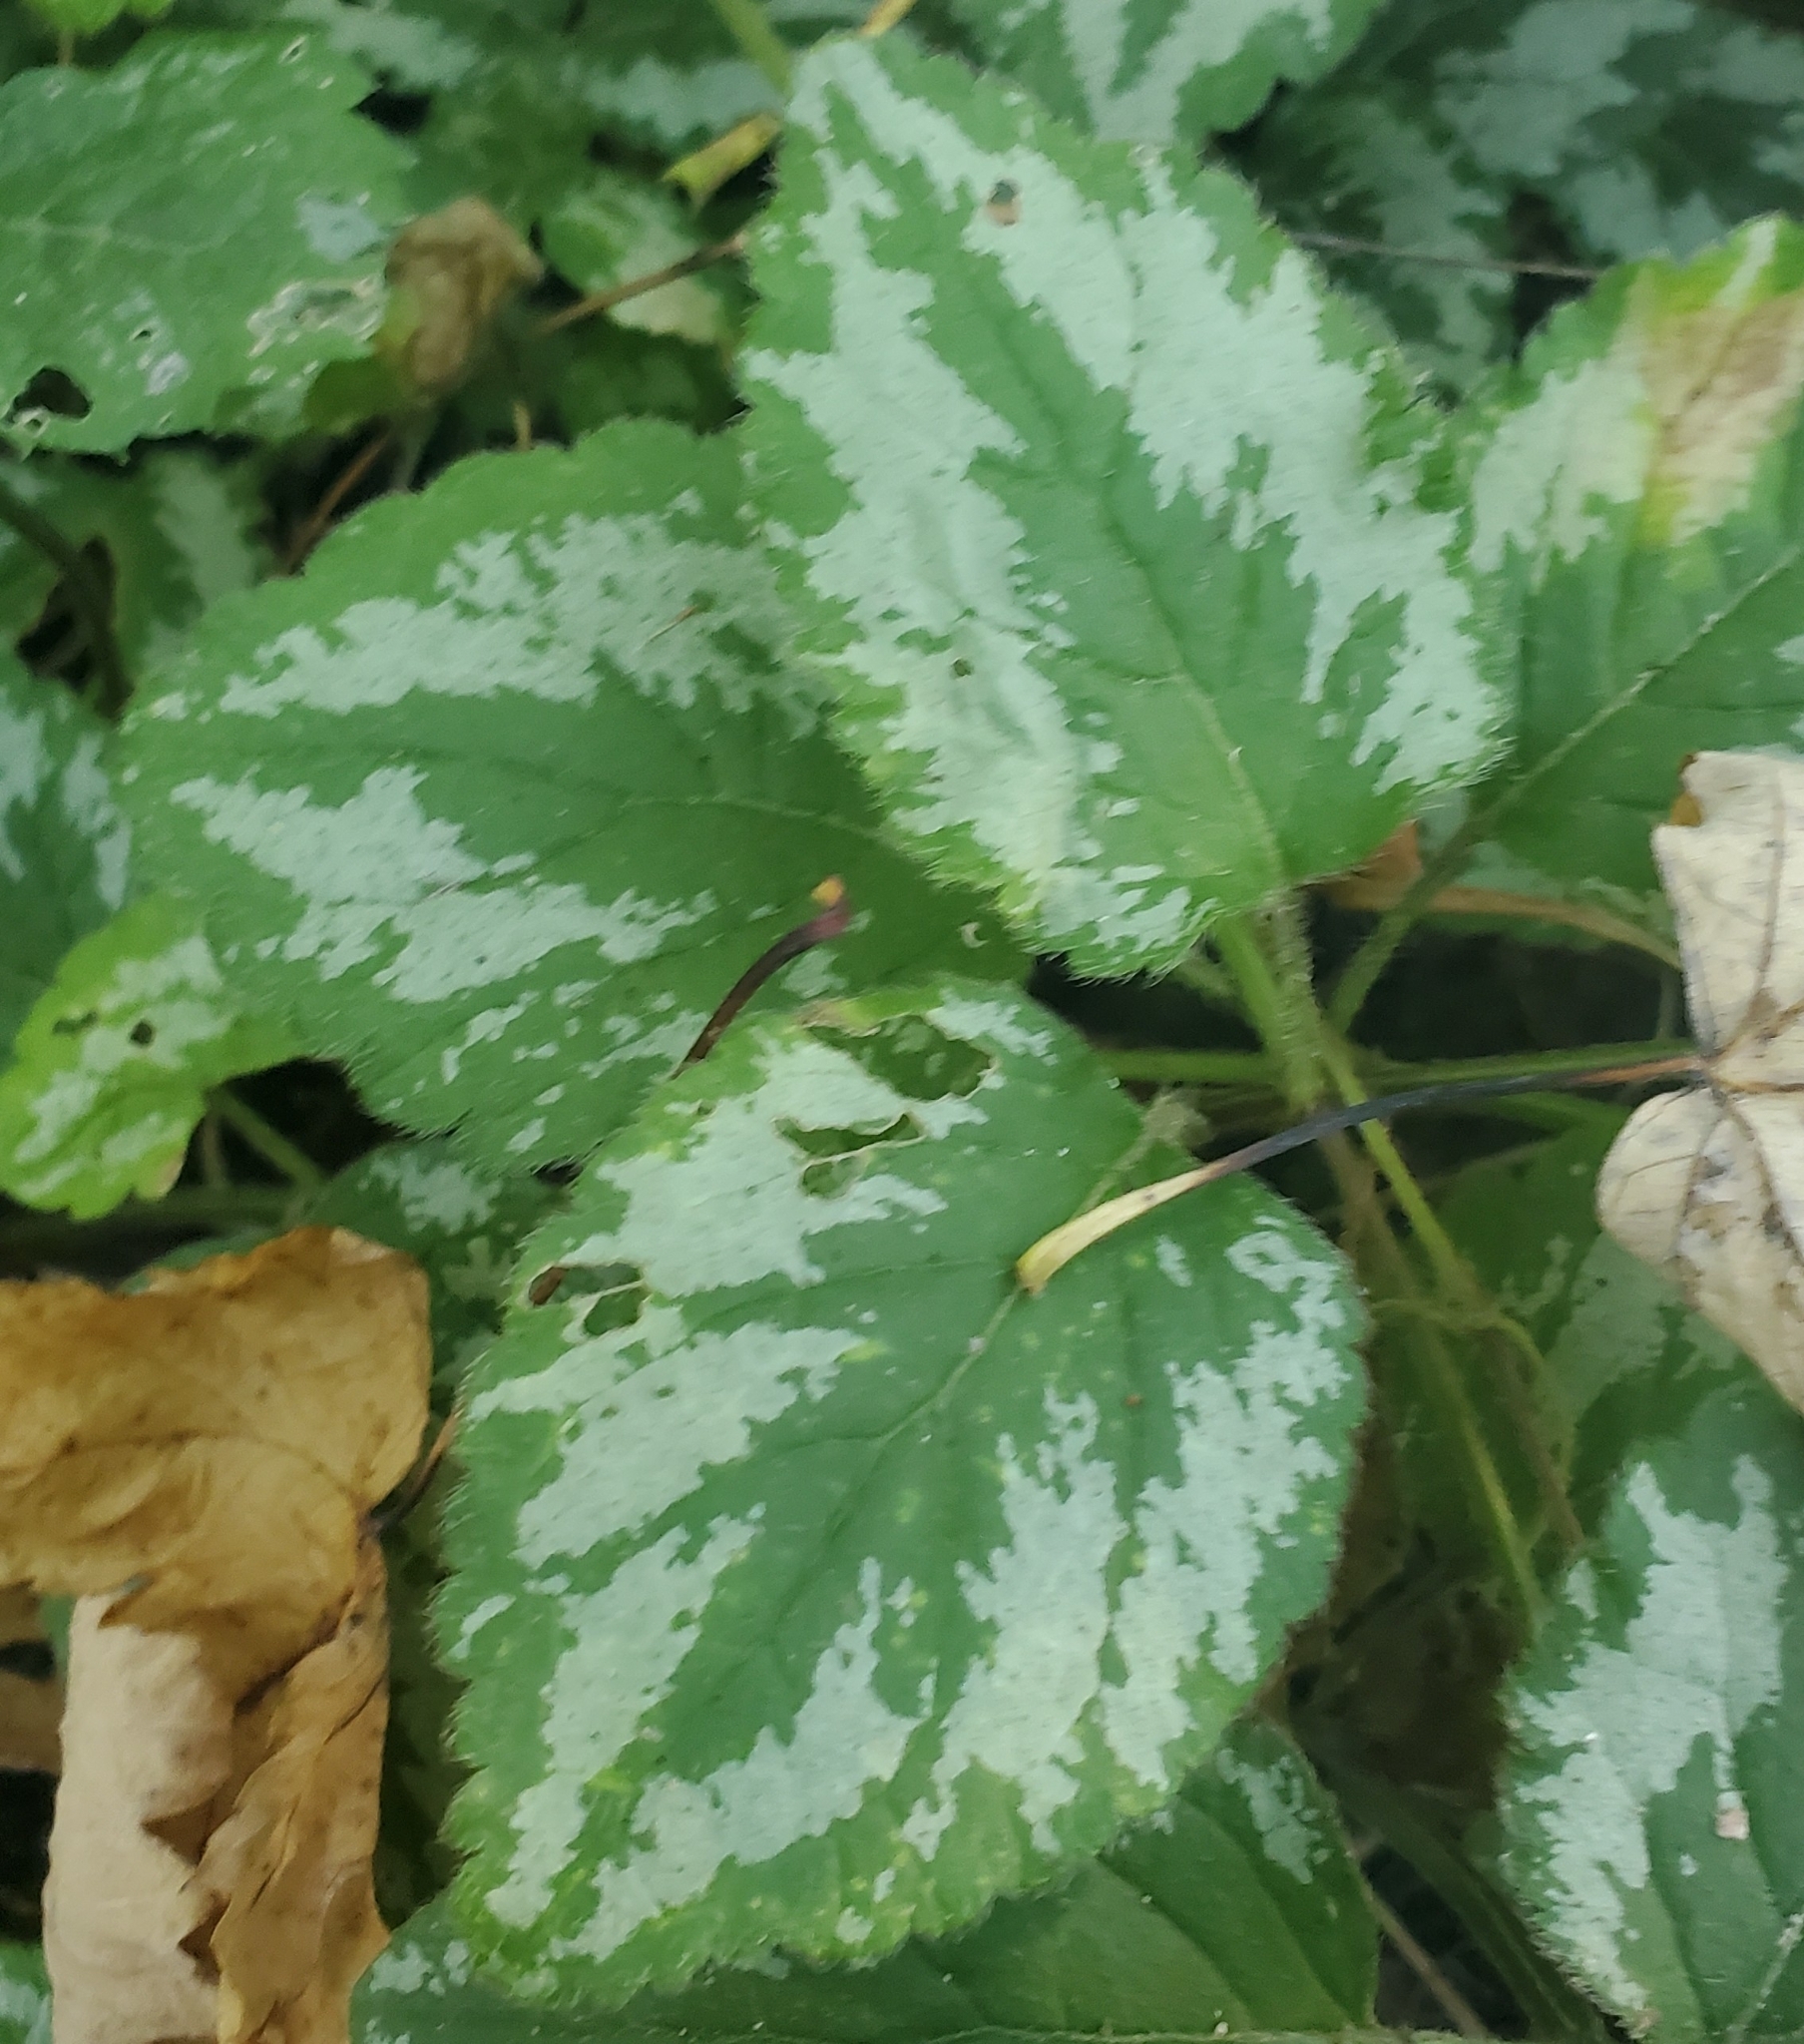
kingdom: Plantae
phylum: Tracheophyta
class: Magnoliopsida
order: Lamiales
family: Lamiaceae
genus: Lamium
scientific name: Lamium galeobdolon
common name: Yellow archangel
